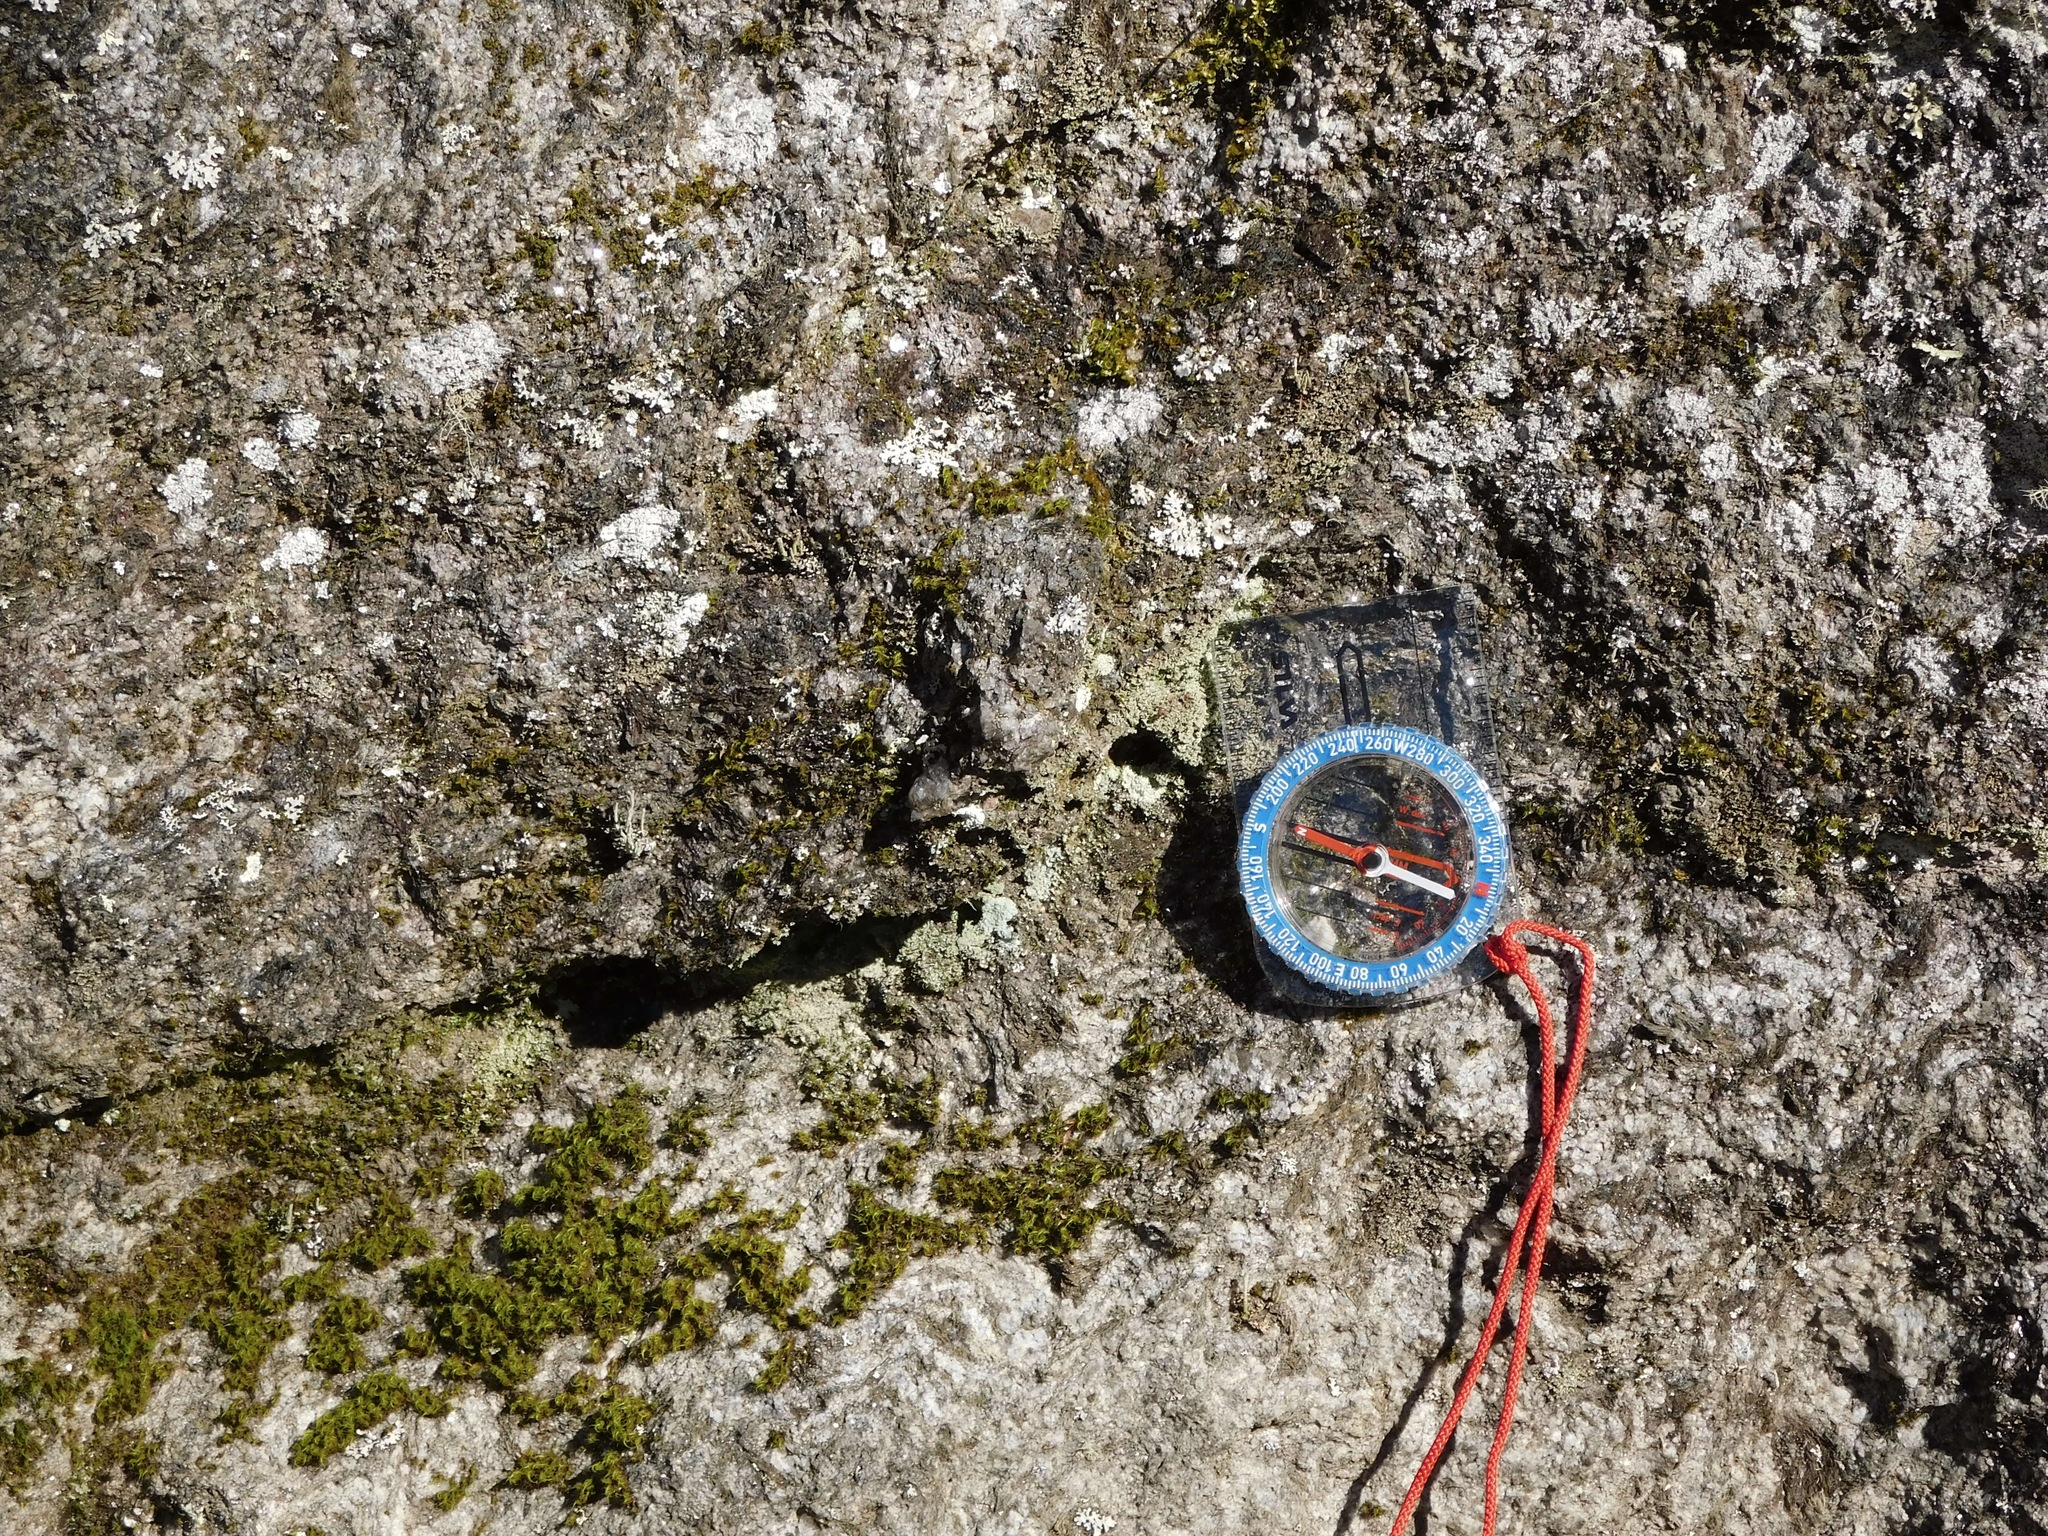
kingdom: Fungi
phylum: Ascomycota
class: Lecanoromycetes
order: Lecanorales
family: Cladoniaceae
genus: Cladonia
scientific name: Cladonia peziziformis
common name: Cup lichen
